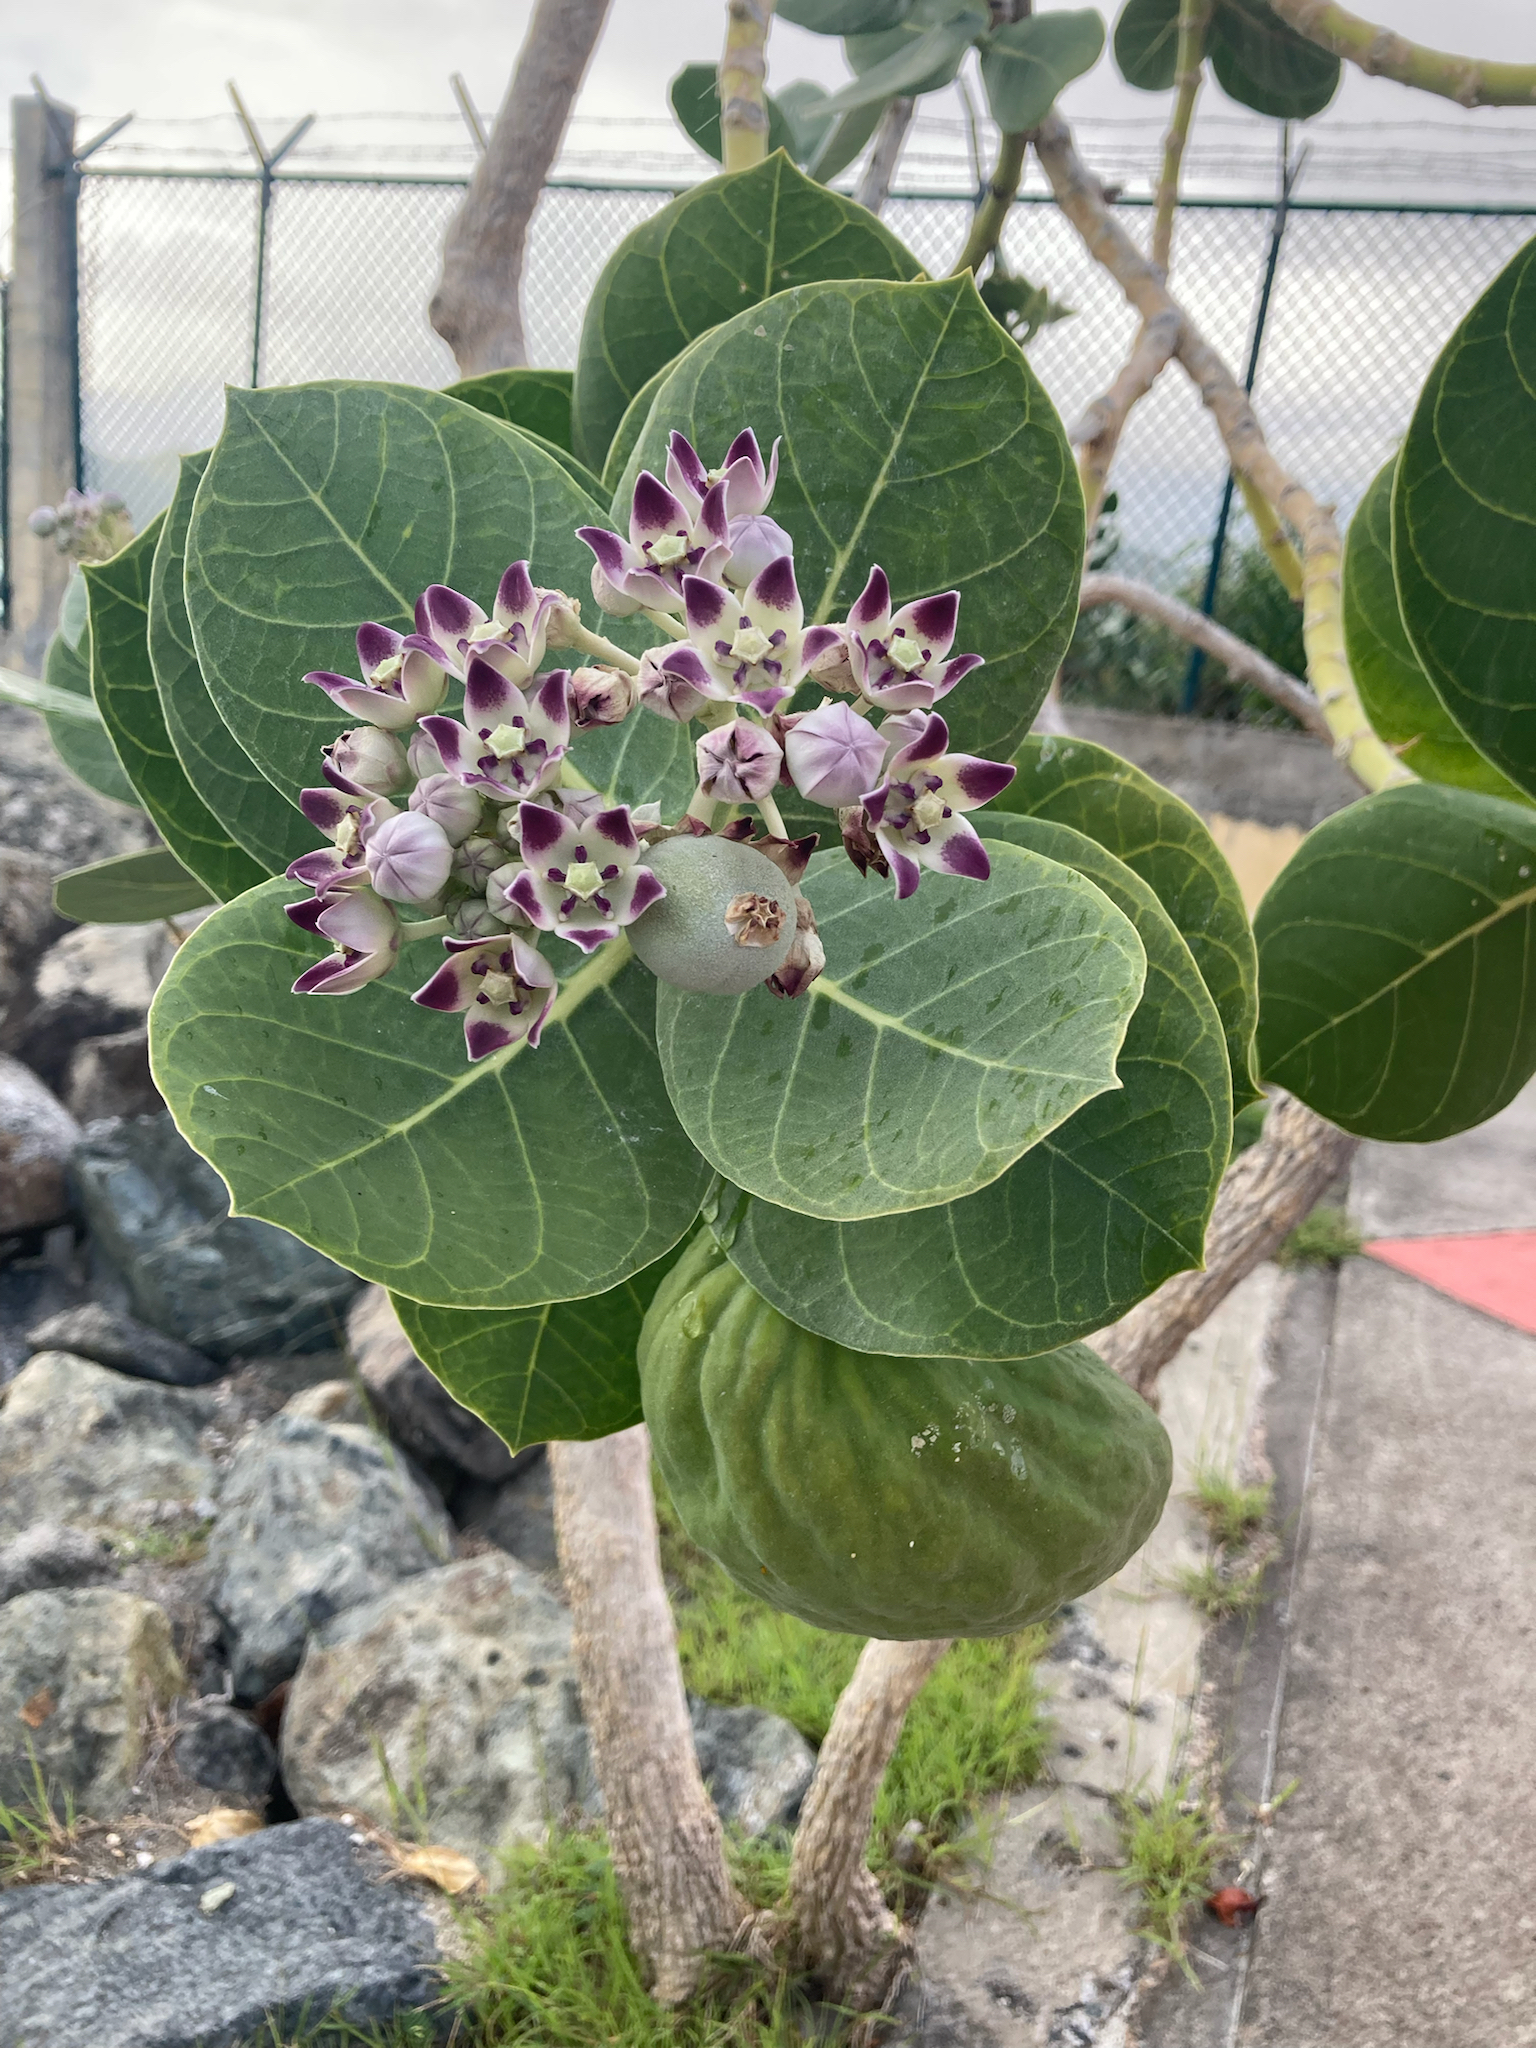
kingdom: Plantae
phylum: Tracheophyta
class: Magnoliopsida
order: Gentianales
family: Apocynaceae
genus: Calotropis
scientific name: Calotropis procera
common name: Roostertree
